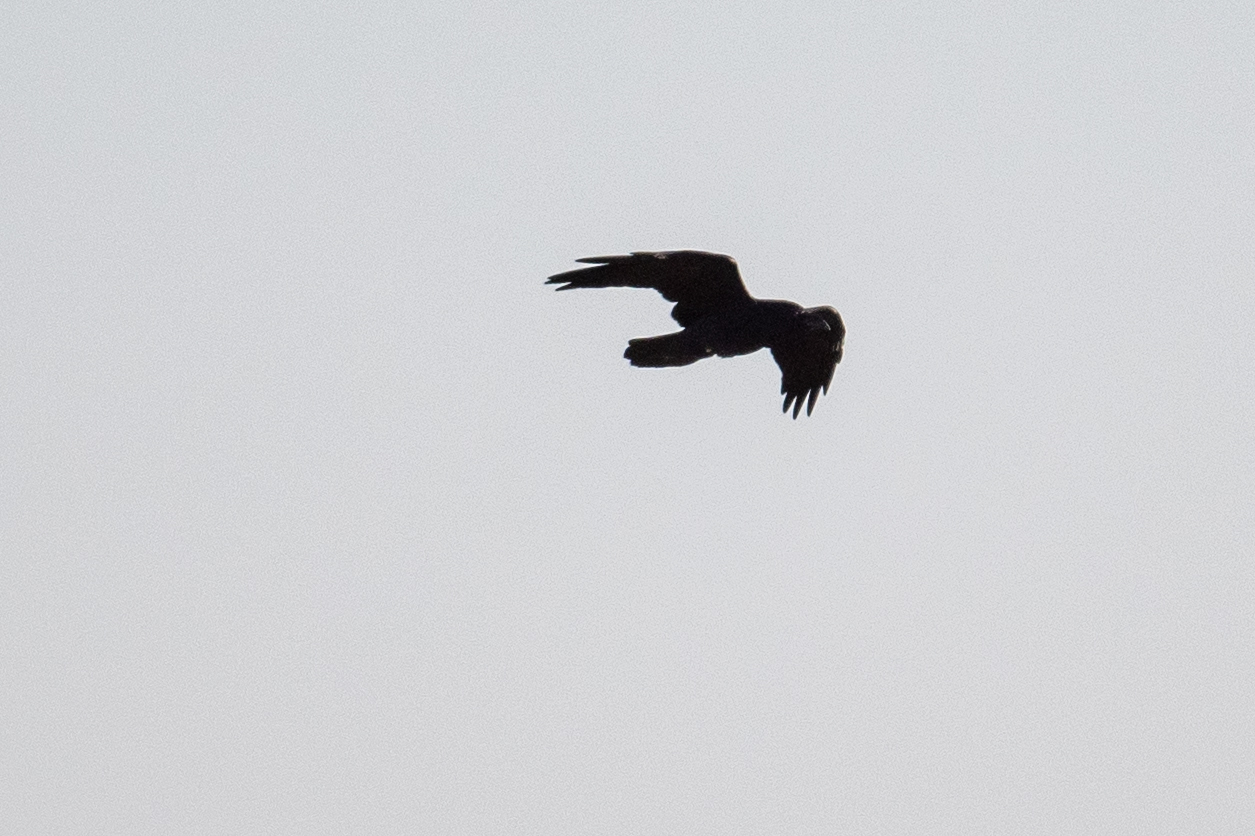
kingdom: Animalia
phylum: Chordata
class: Aves
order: Passeriformes
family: Corvidae
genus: Corvus
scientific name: Corvus corax
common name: Common raven
